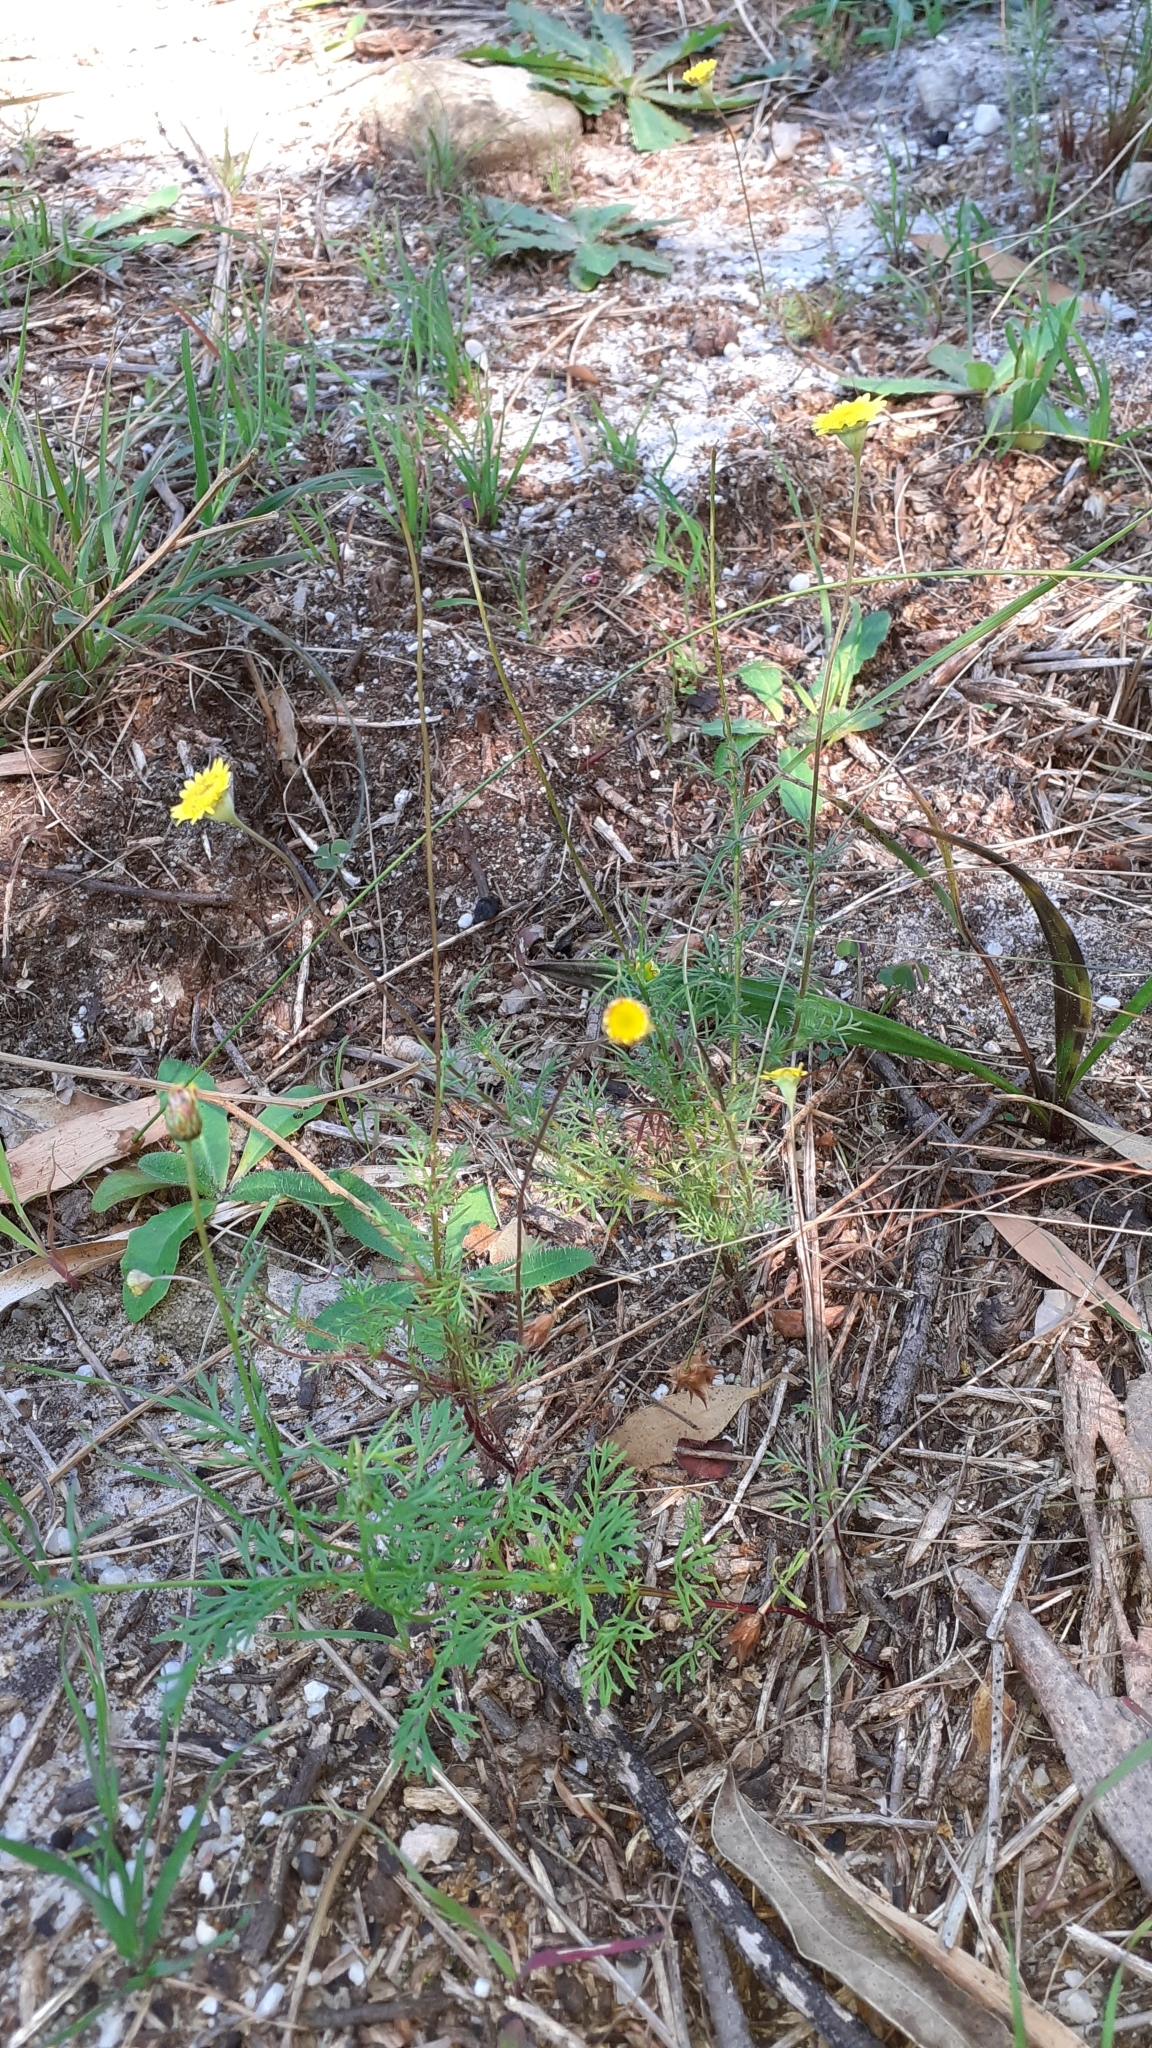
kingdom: Plantae
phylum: Tracheophyta
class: Magnoliopsida
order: Asterales
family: Asteraceae
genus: Cotula
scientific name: Cotula pruinosa
